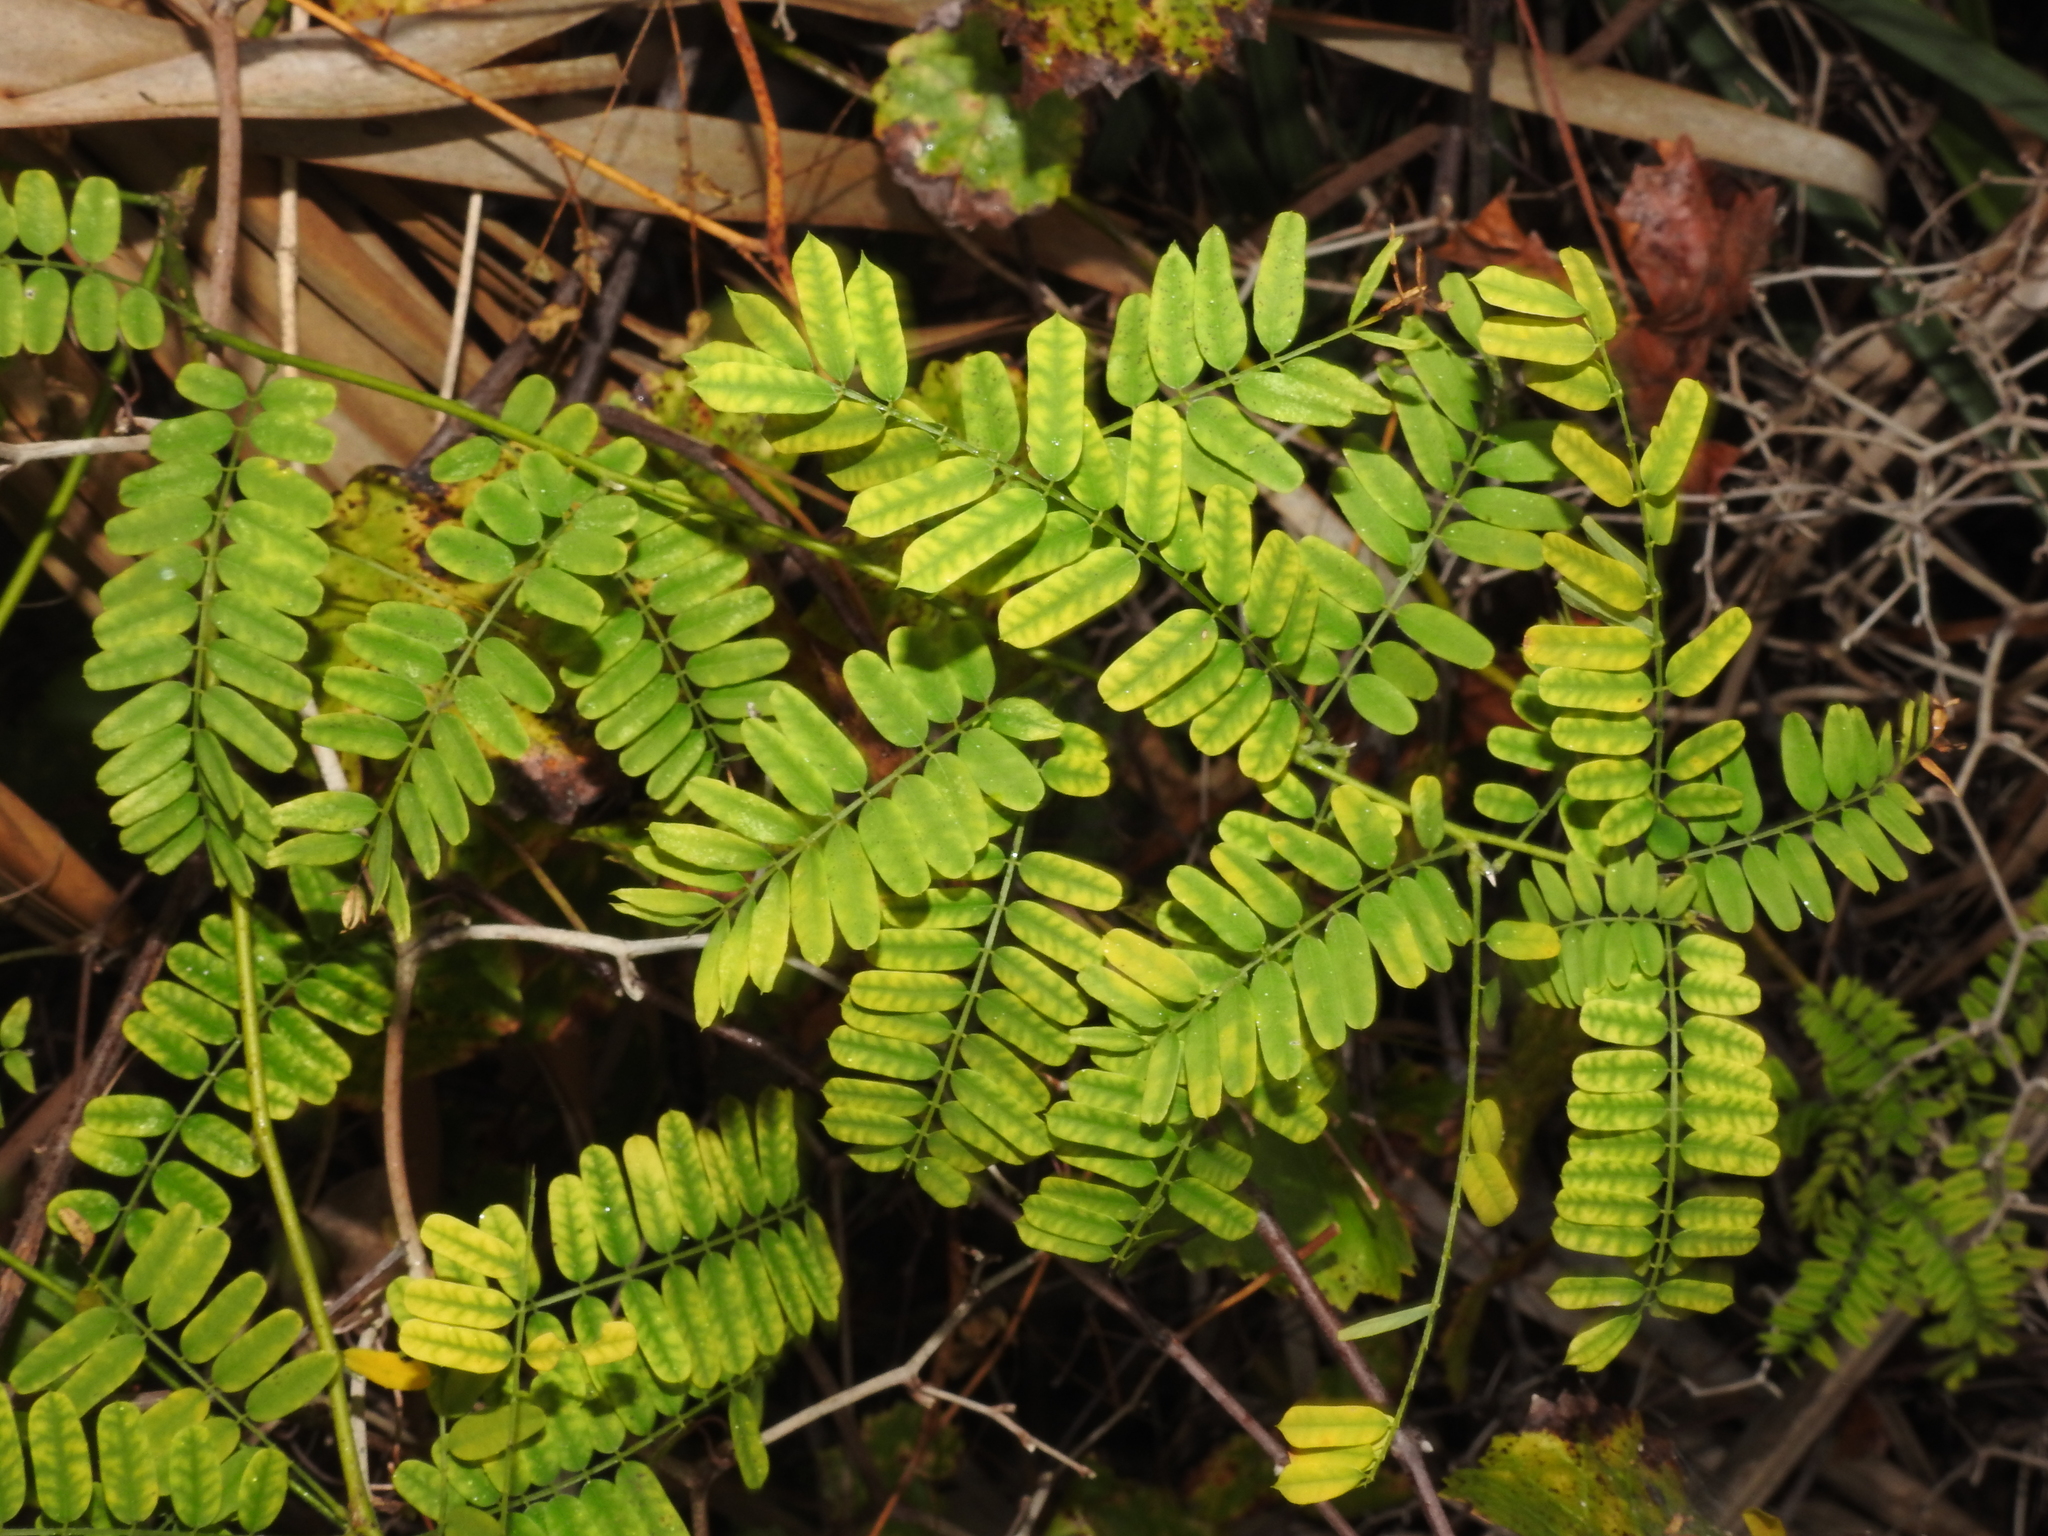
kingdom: Plantae
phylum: Tracheophyta
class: Magnoliopsida
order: Fabales
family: Fabaceae
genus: Abrus
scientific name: Abrus precatorius
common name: Rosarypea
